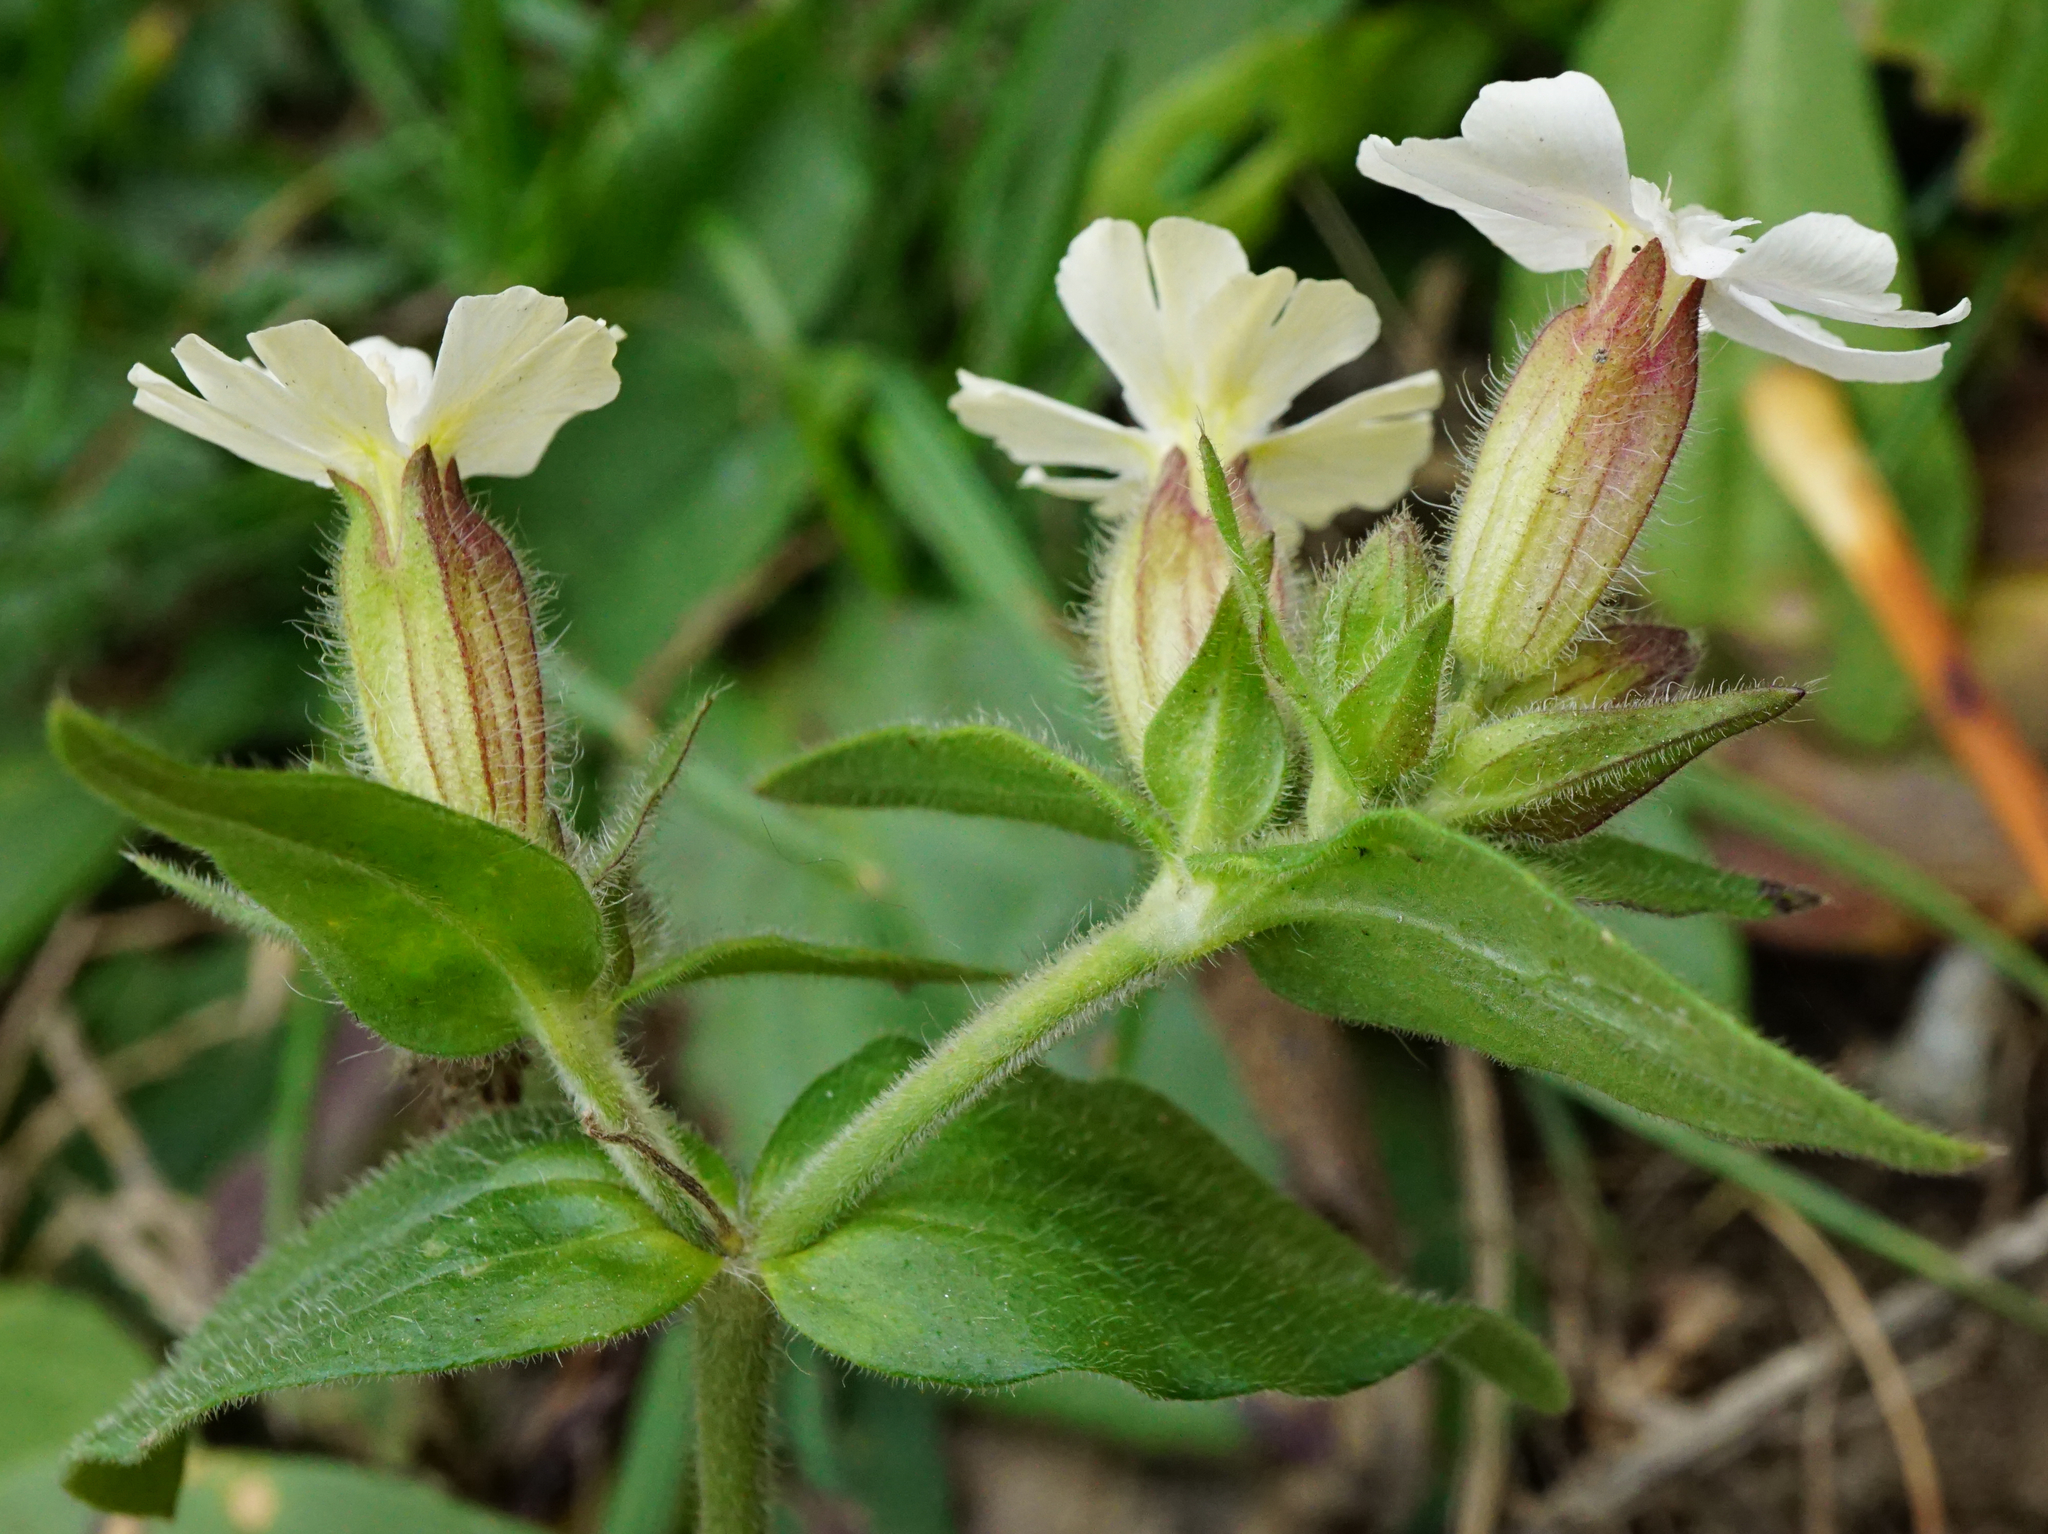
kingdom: Plantae
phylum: Tracheophyta
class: Magnoliopsida
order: Caryophyllales
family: Caryophyllaceae
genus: Silene
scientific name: Silene latifolia
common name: White campion
